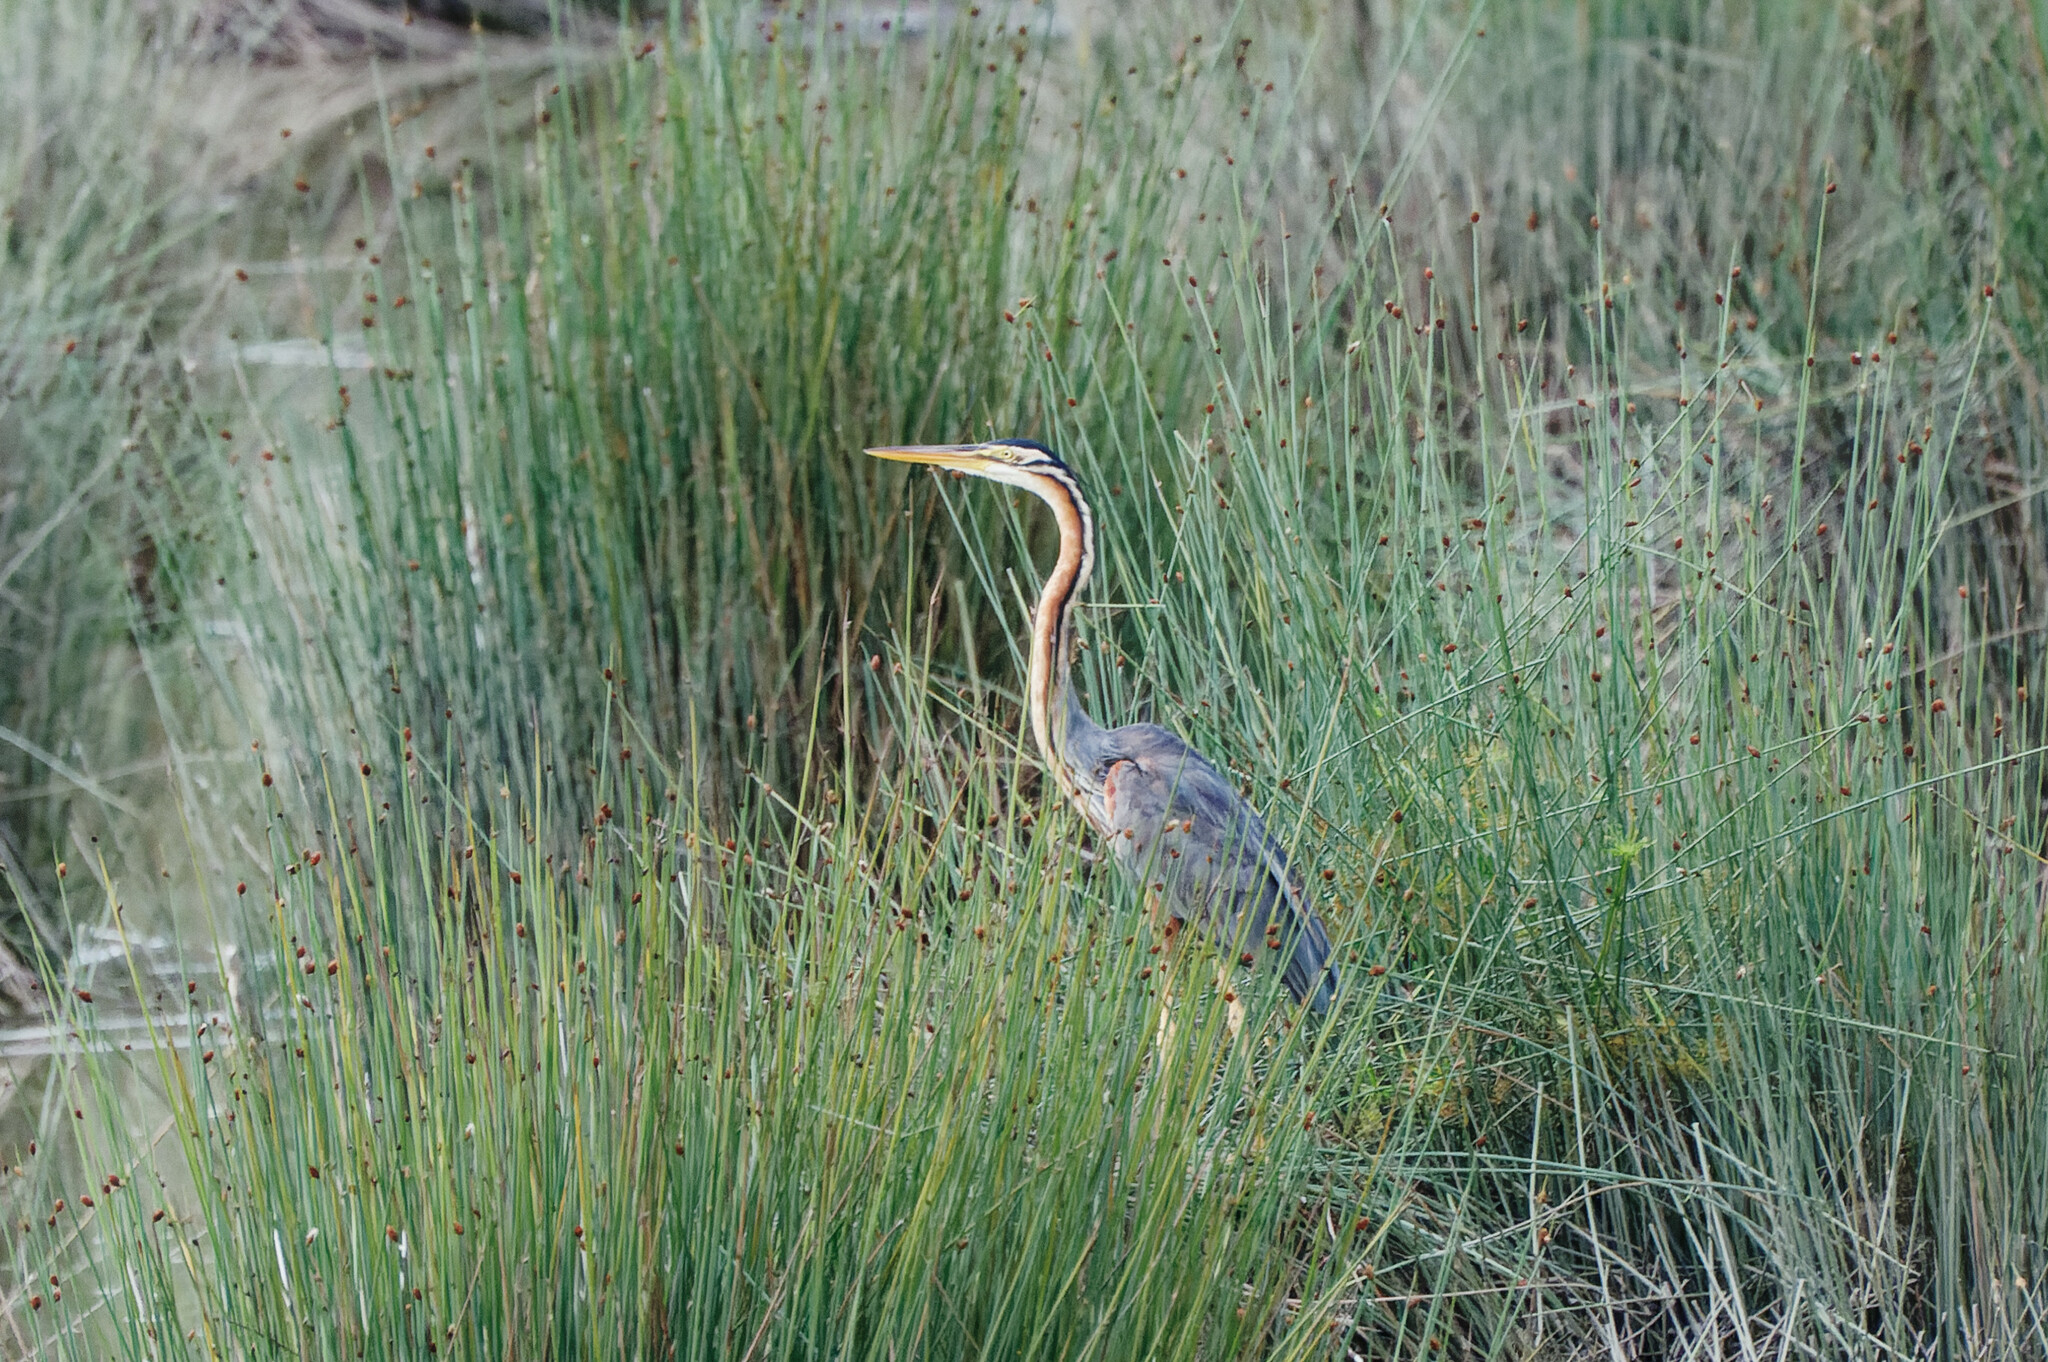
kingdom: Animalia
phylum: Chordata
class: Aves
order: Pelecaniformes
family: Ardeidae
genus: Ardea
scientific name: Ardea purpurea
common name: Purple heron
